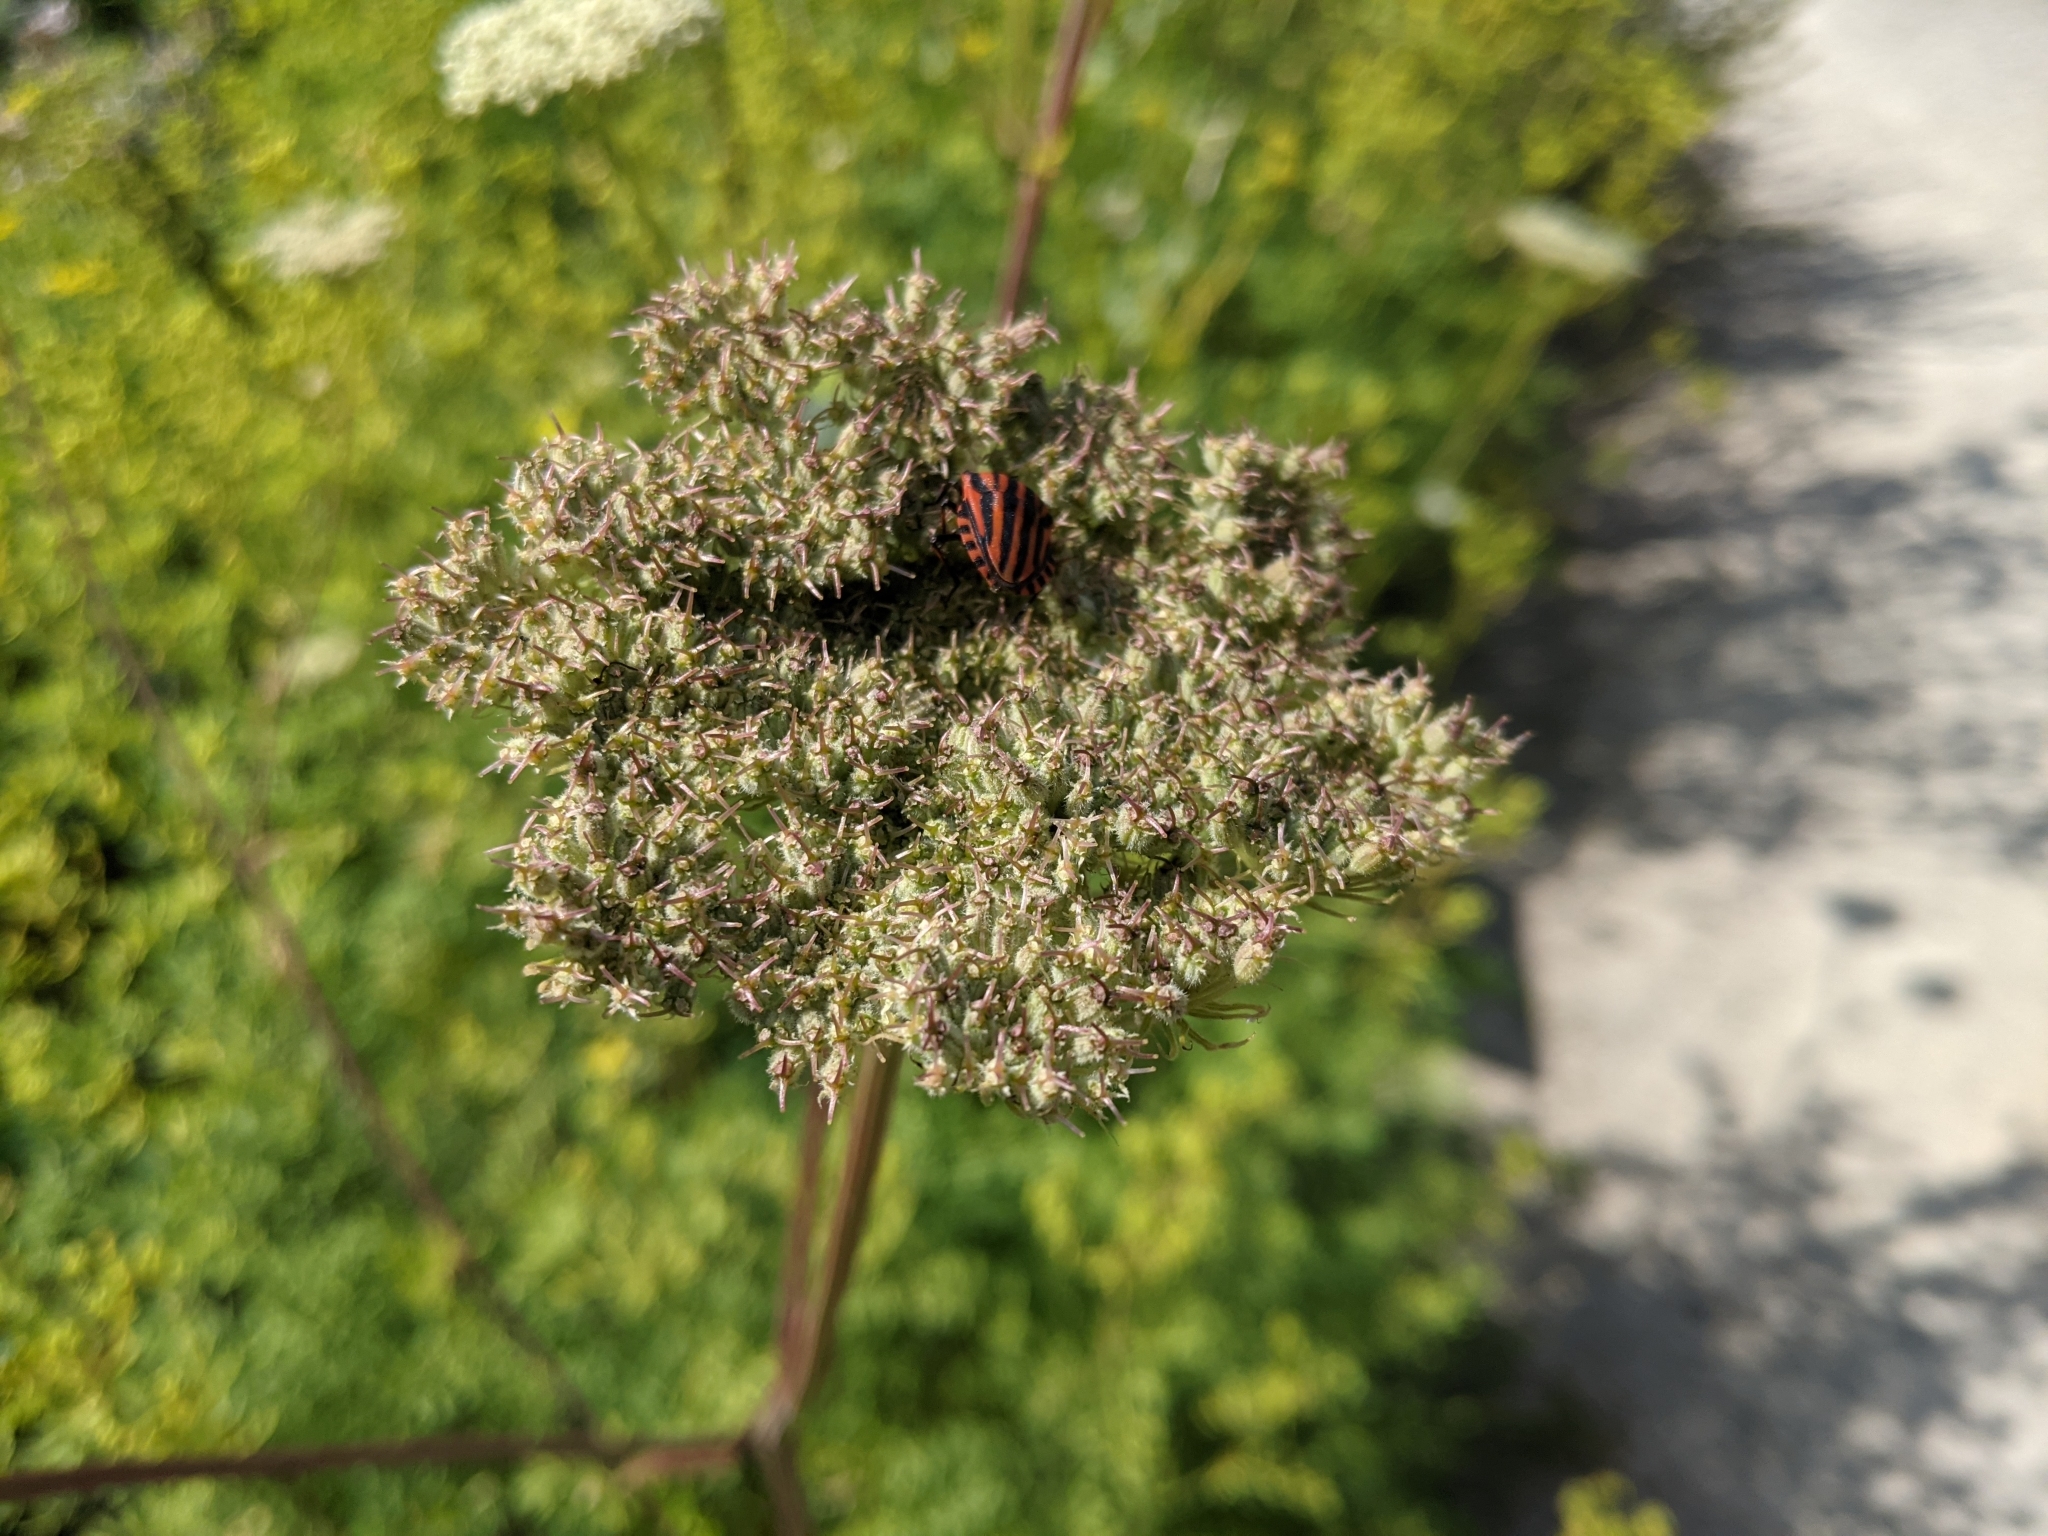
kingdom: Animalia
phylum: Arthropoda
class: Insecta
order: Hemiptera
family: Pentatomidae
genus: Graphosoma
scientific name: Graphosoma italicum
